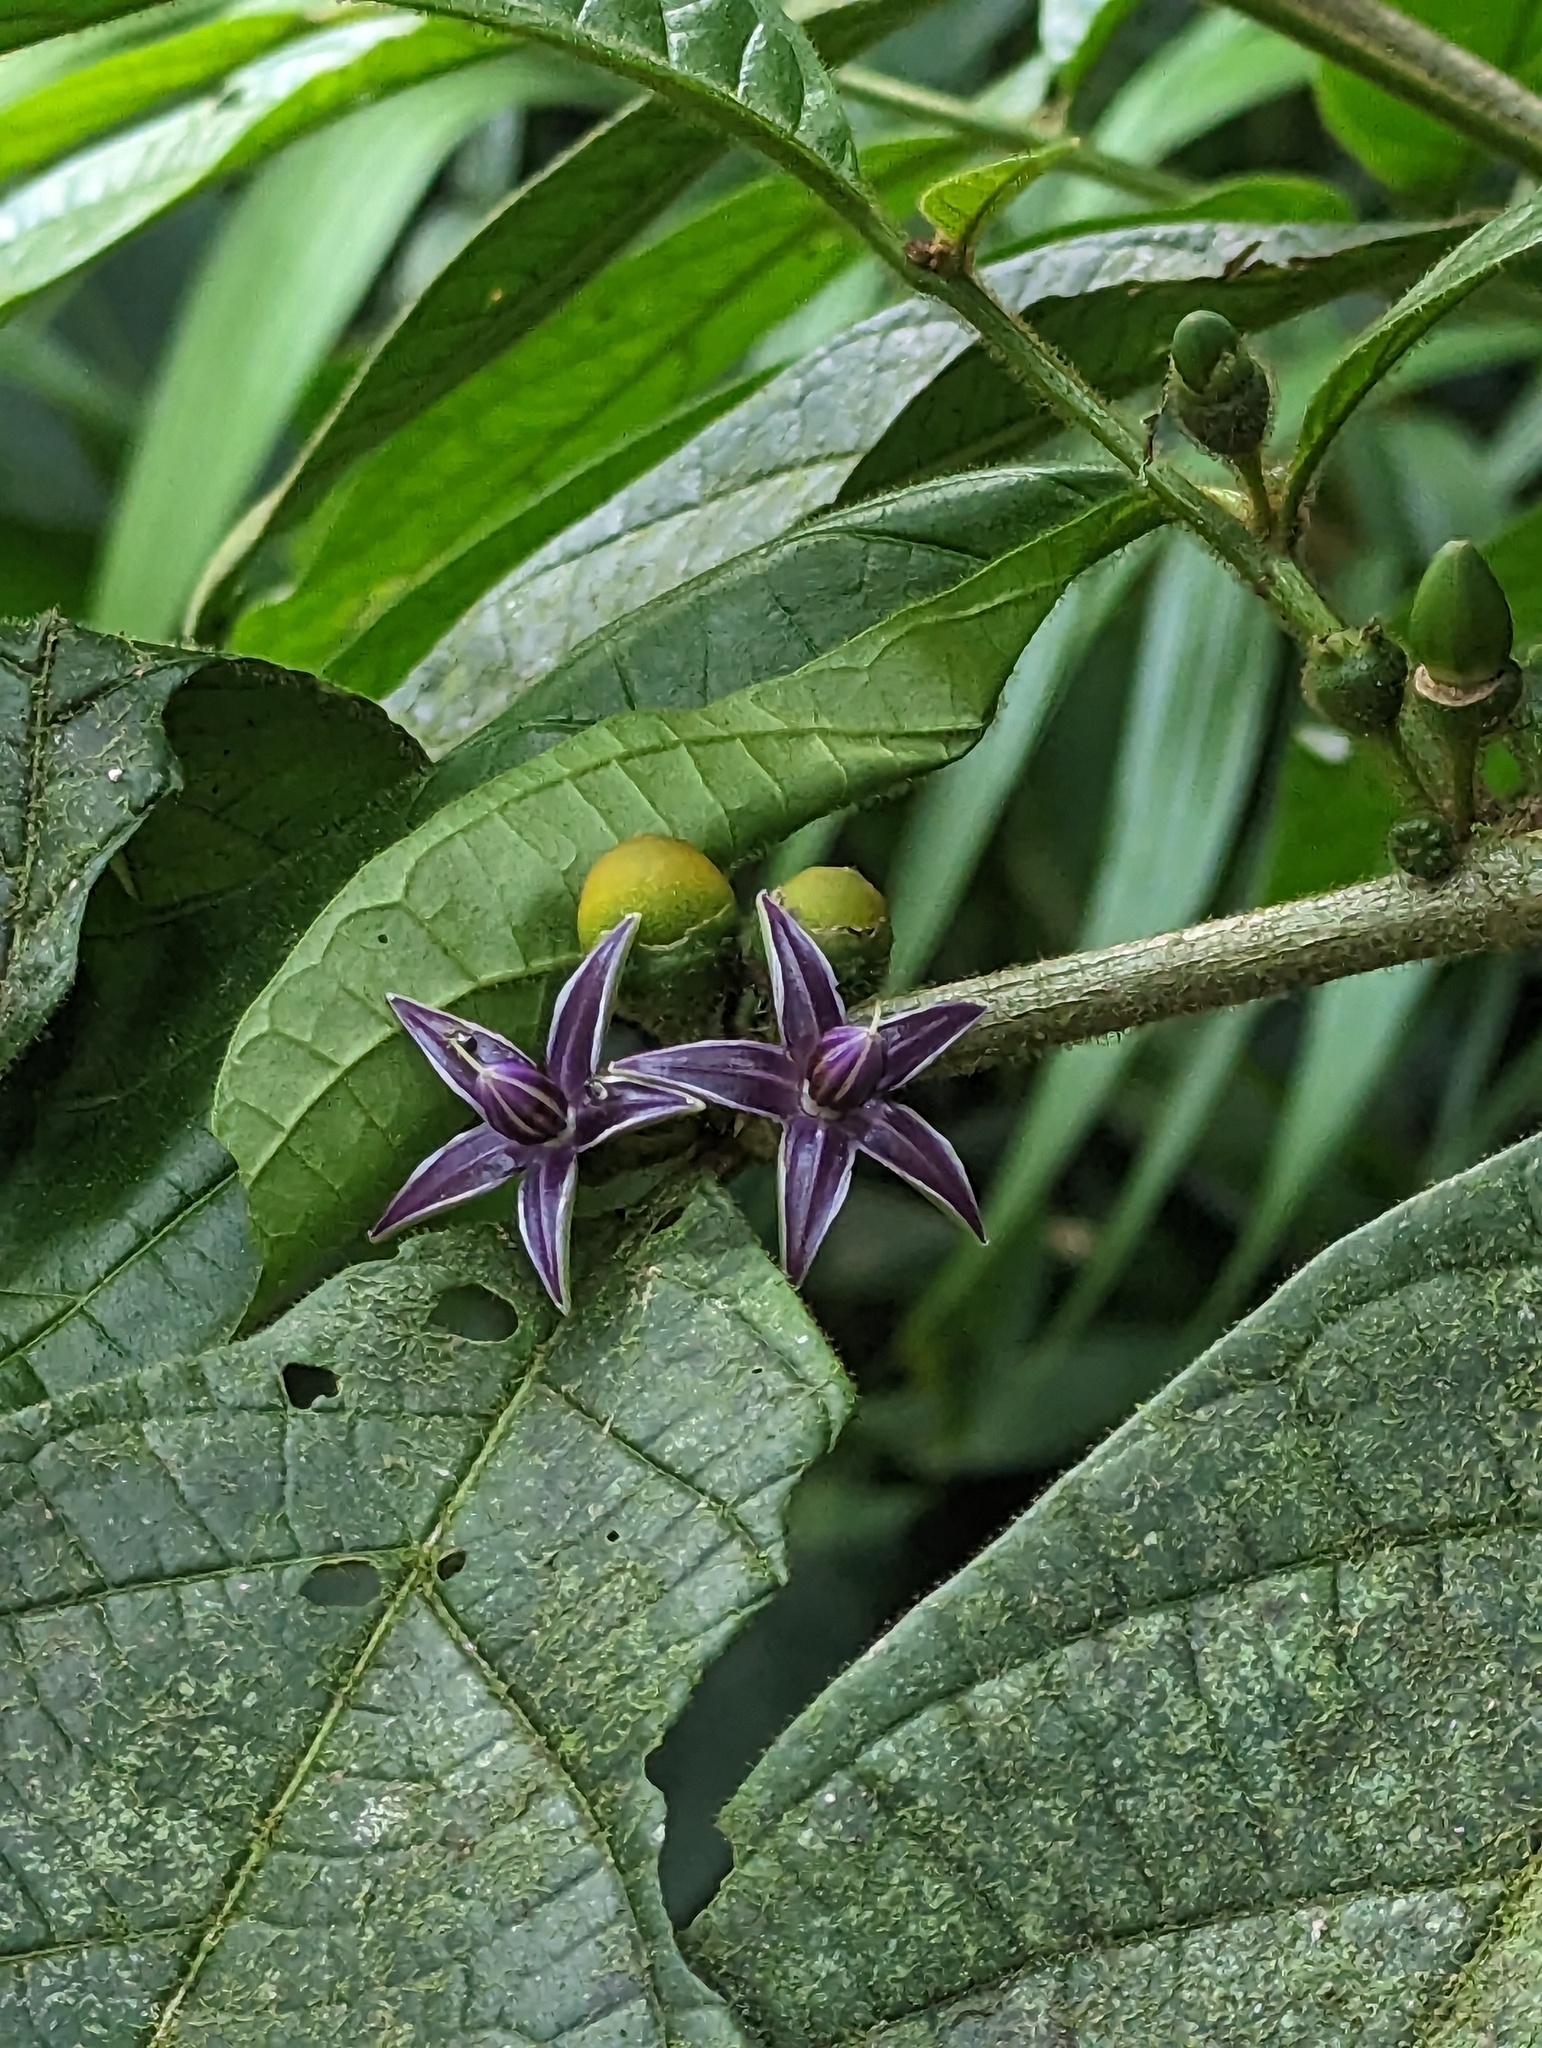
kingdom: Plantae
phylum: Tracheophyta
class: Magnoliopsida
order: Solanales
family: Solanaceae
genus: Lycianthes
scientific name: Lycianthes sanctaeclarae
